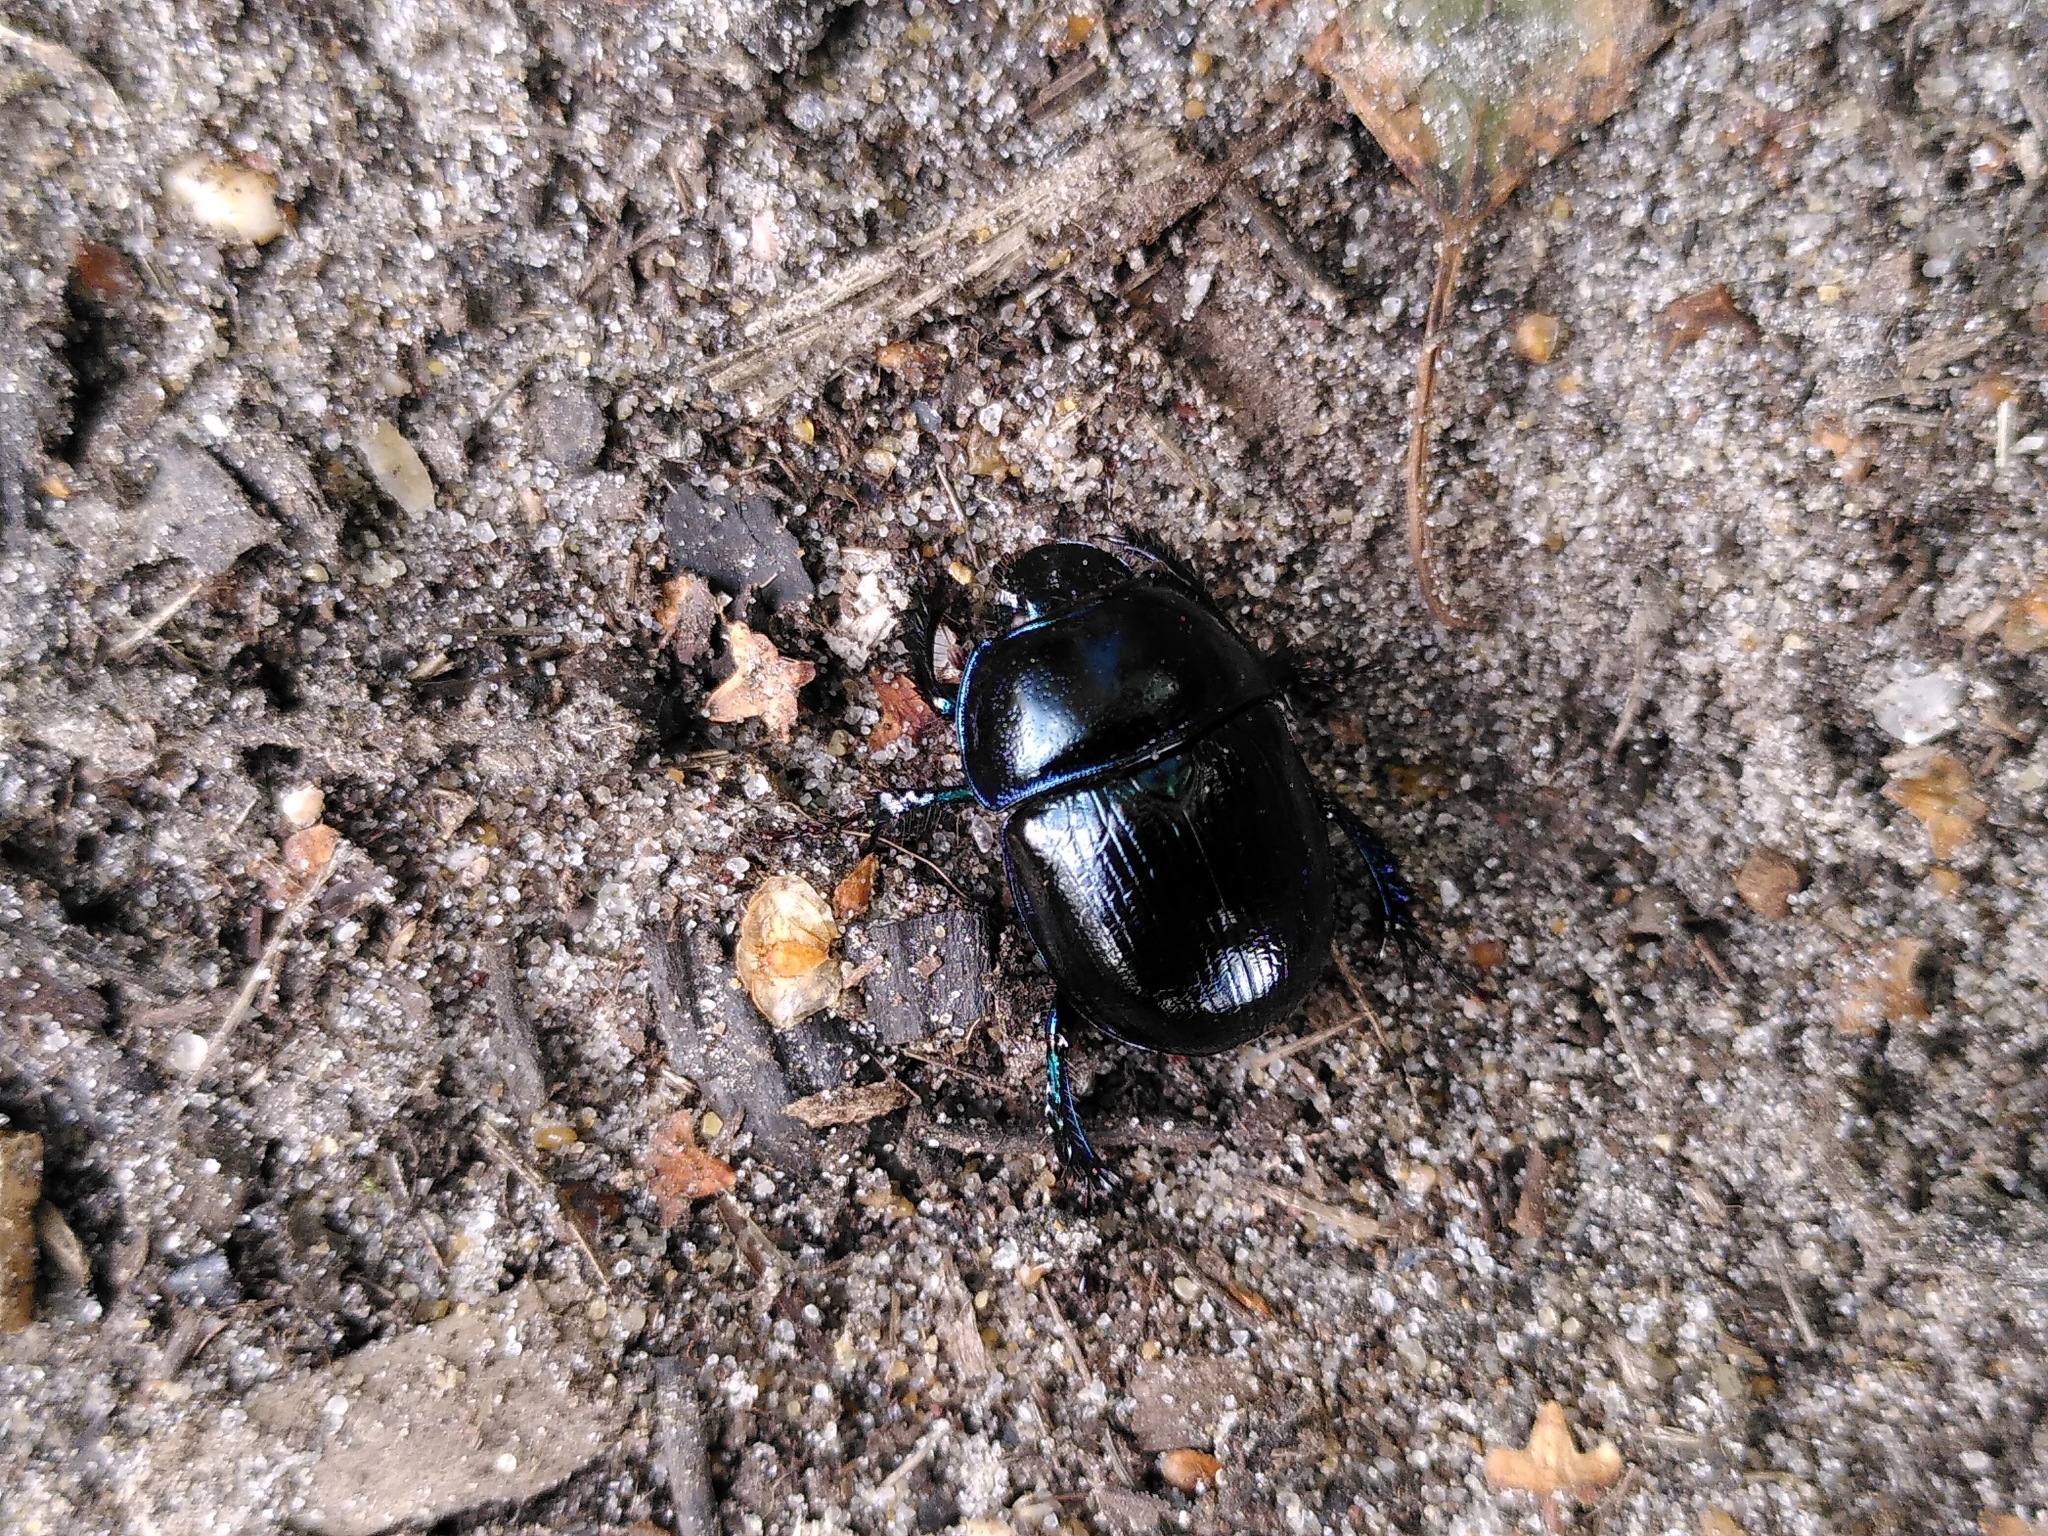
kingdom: Animalia
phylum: Arthropoda
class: Insecta
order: Coleoptera
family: Geotrupidae
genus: Anoplotrupes
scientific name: Anoplotrupes stercorosus
